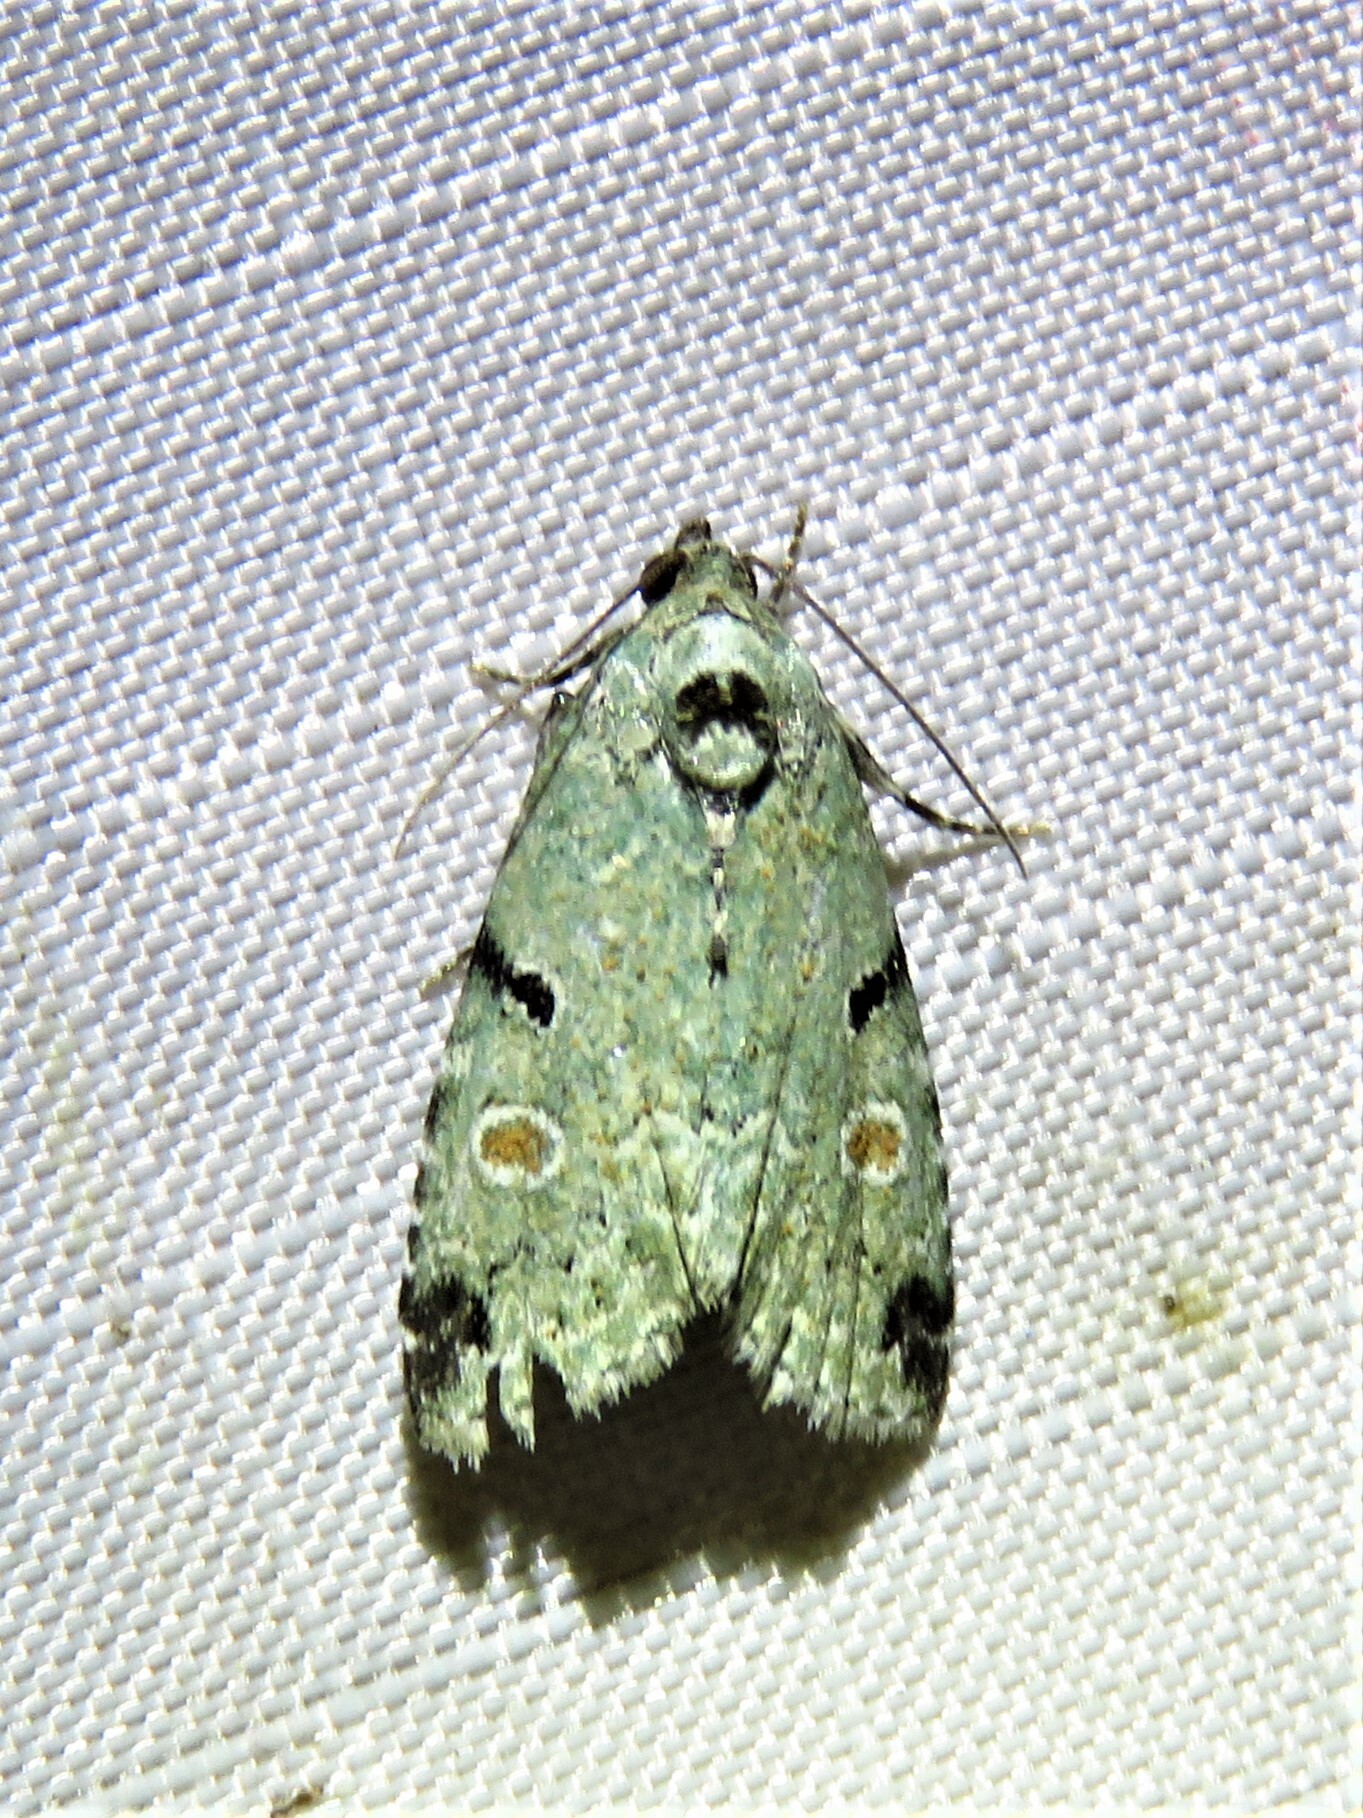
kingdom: Animalia
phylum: Arthropoda
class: Insecta
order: Lepidoptera
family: Noctuidae
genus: Maliattha
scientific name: Maliattha concinnimacula
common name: Red-spotted glyph
